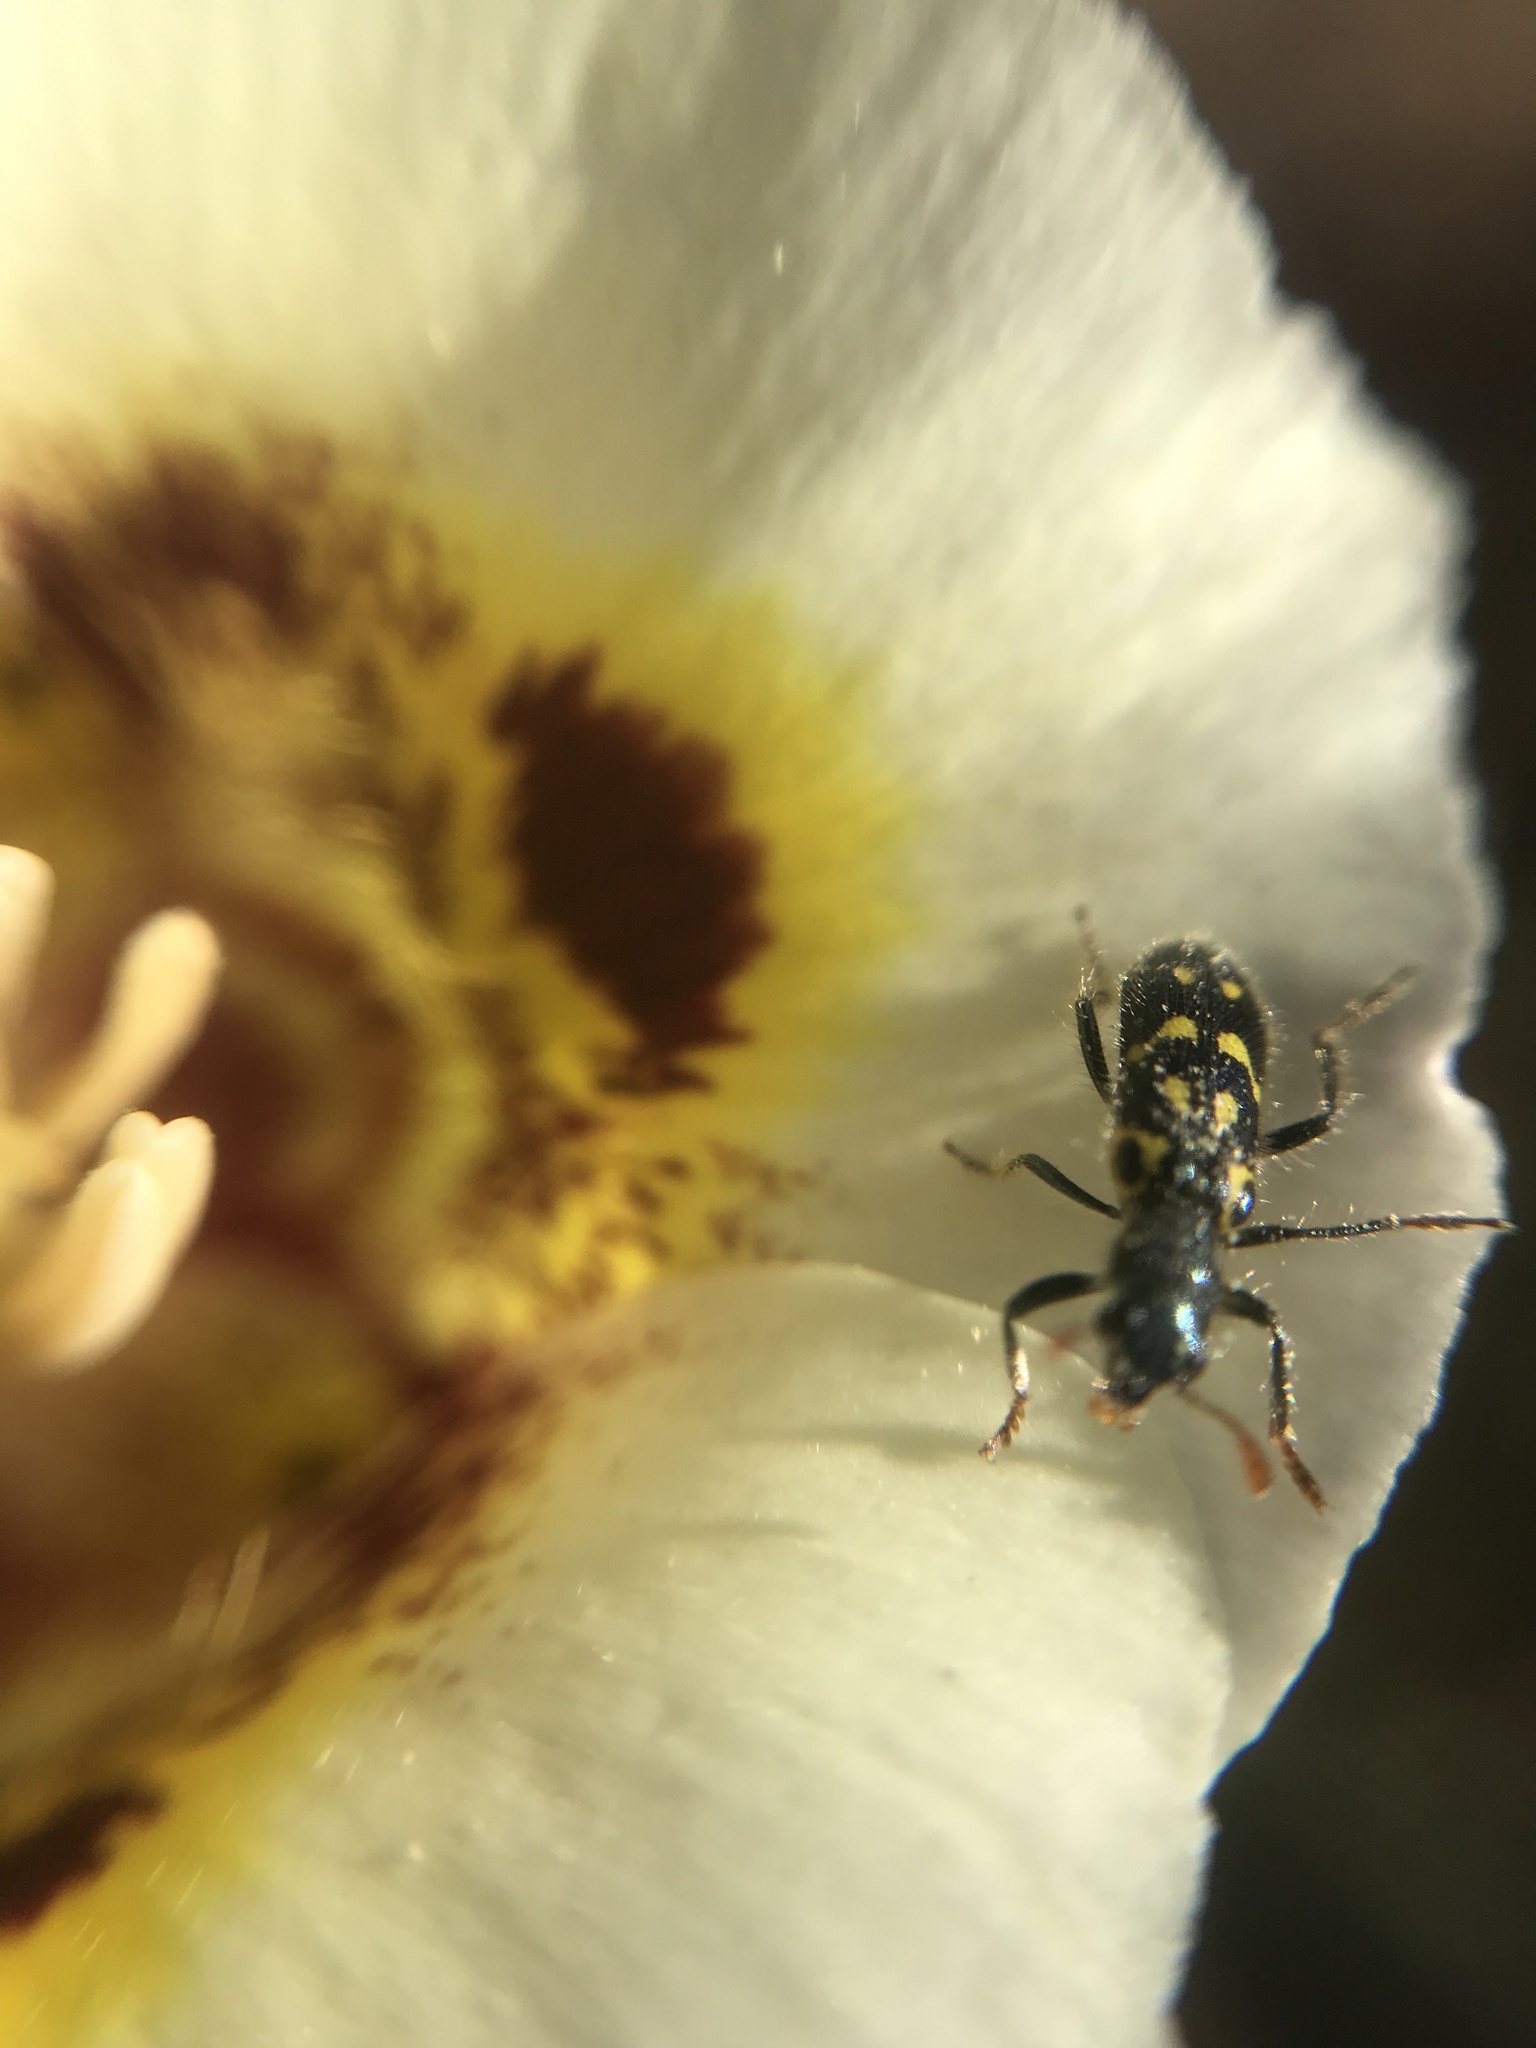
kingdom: Animalia
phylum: Arthropoda
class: Insecta
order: Coleoptera
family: Cleridae
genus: Trichodes
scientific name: Trichodes ornatus
